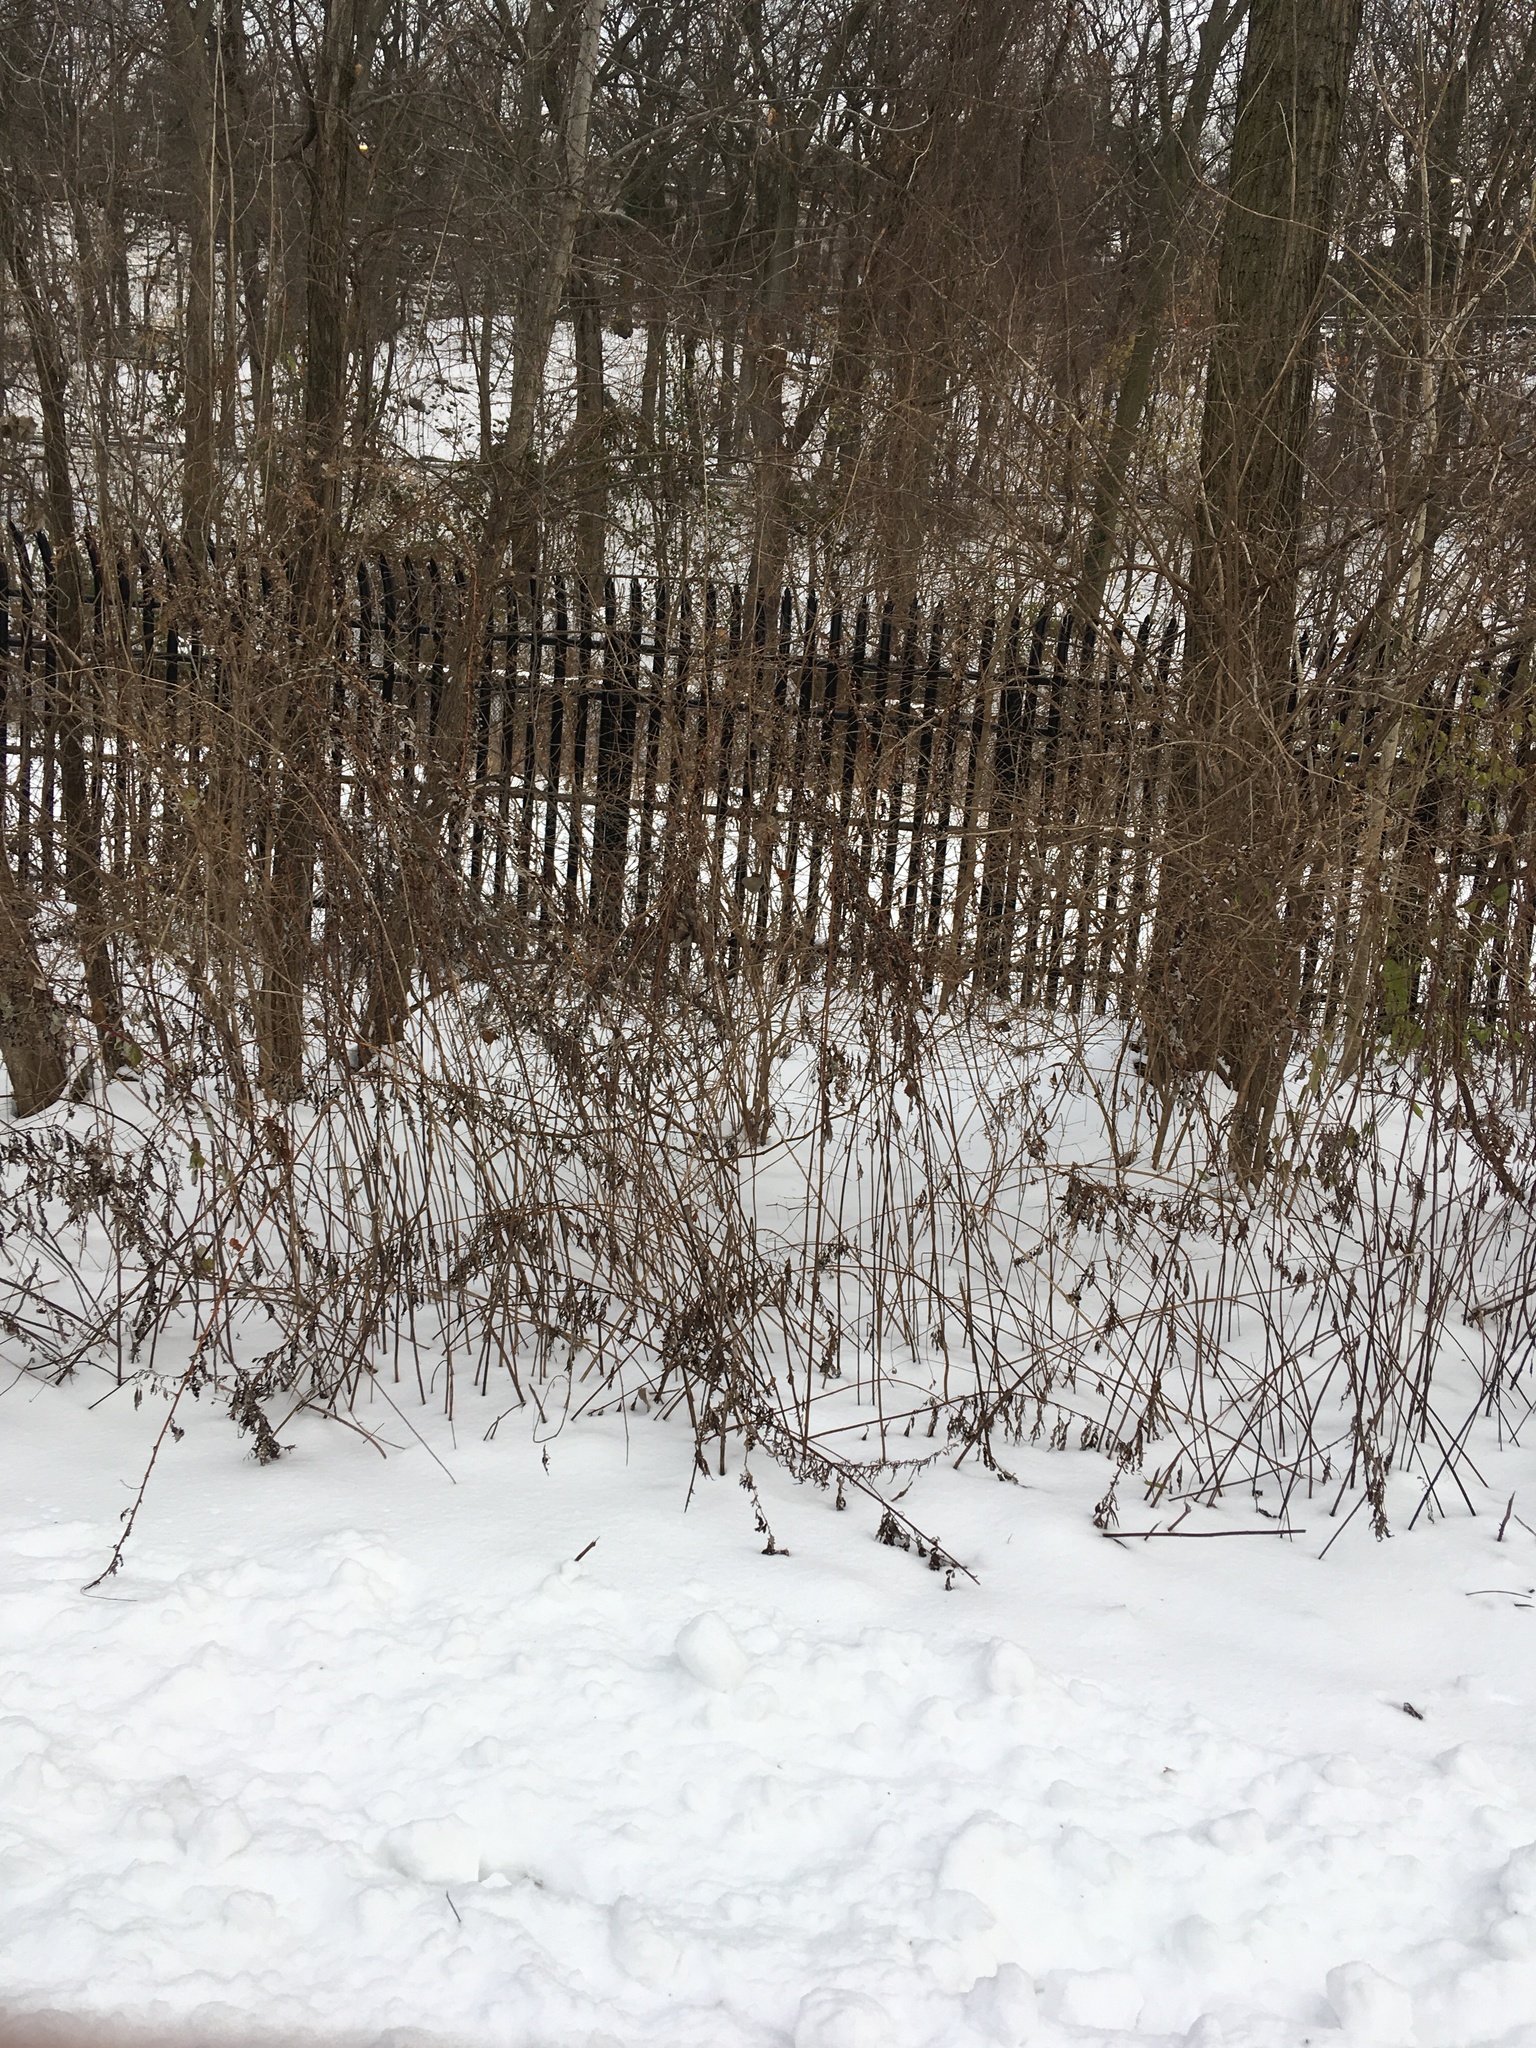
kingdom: Plantae
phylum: Tracheophyta
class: Magnoliopsida
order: Asterales
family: Asteraceae
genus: Artemisia
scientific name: Artemisia vulgaris
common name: Mugwort
